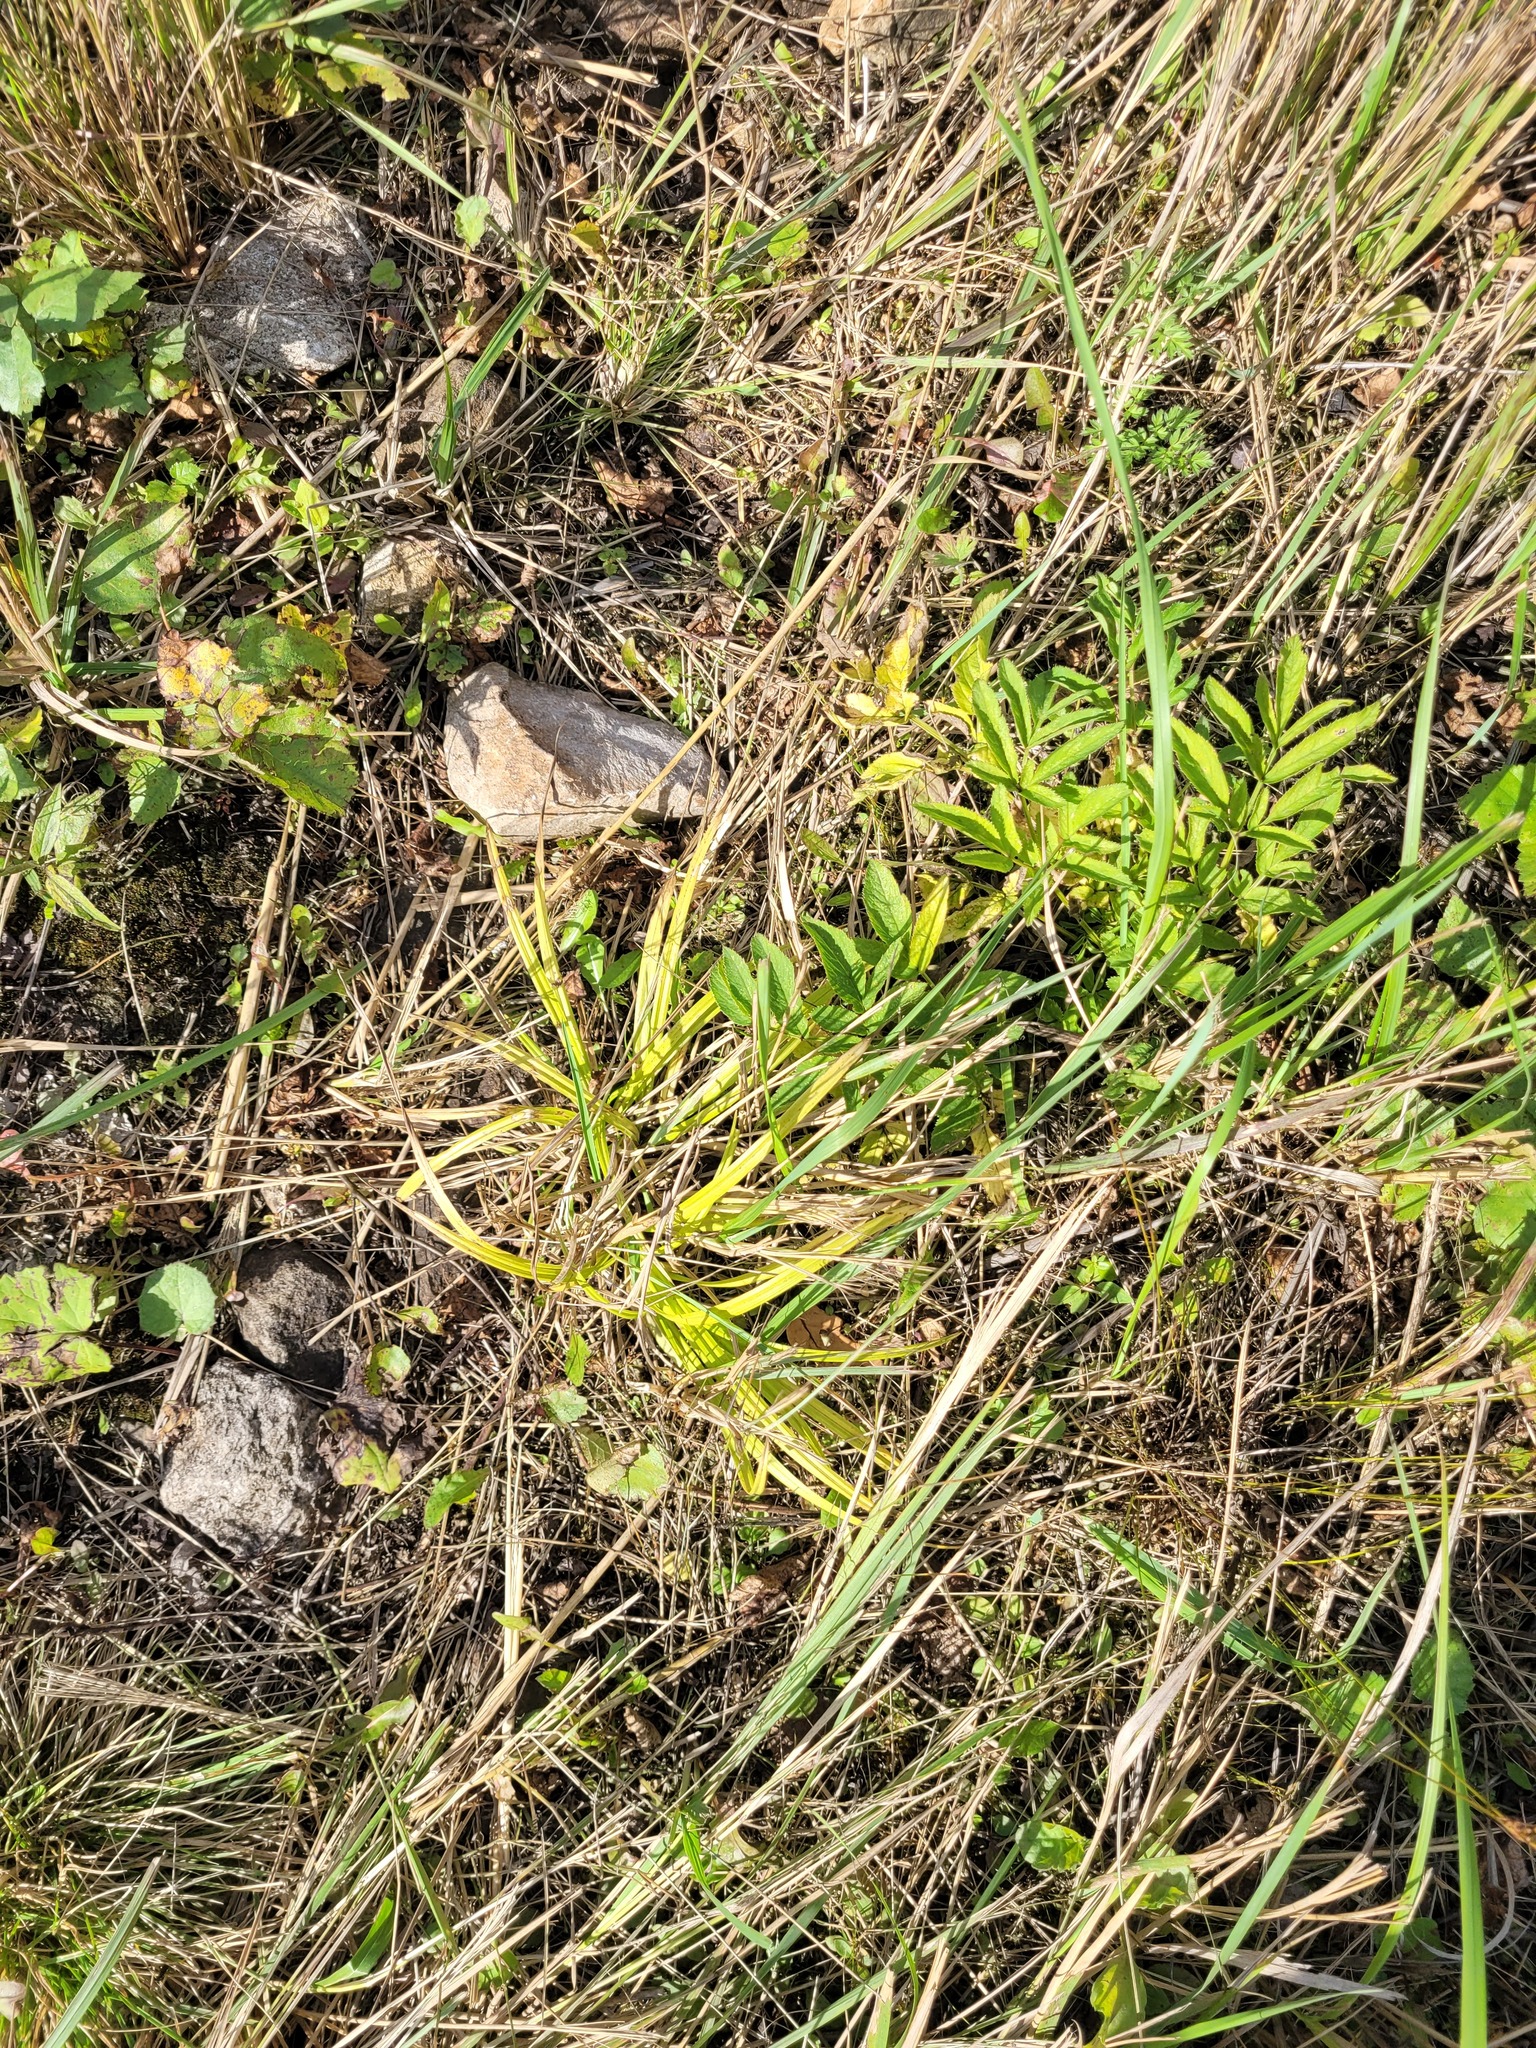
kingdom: Plantae
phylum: Tracheophyta
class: Liliopsida
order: Poales
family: Cyperaceae
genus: Carex
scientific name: Carex sylvatica
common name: Wood-sedge
